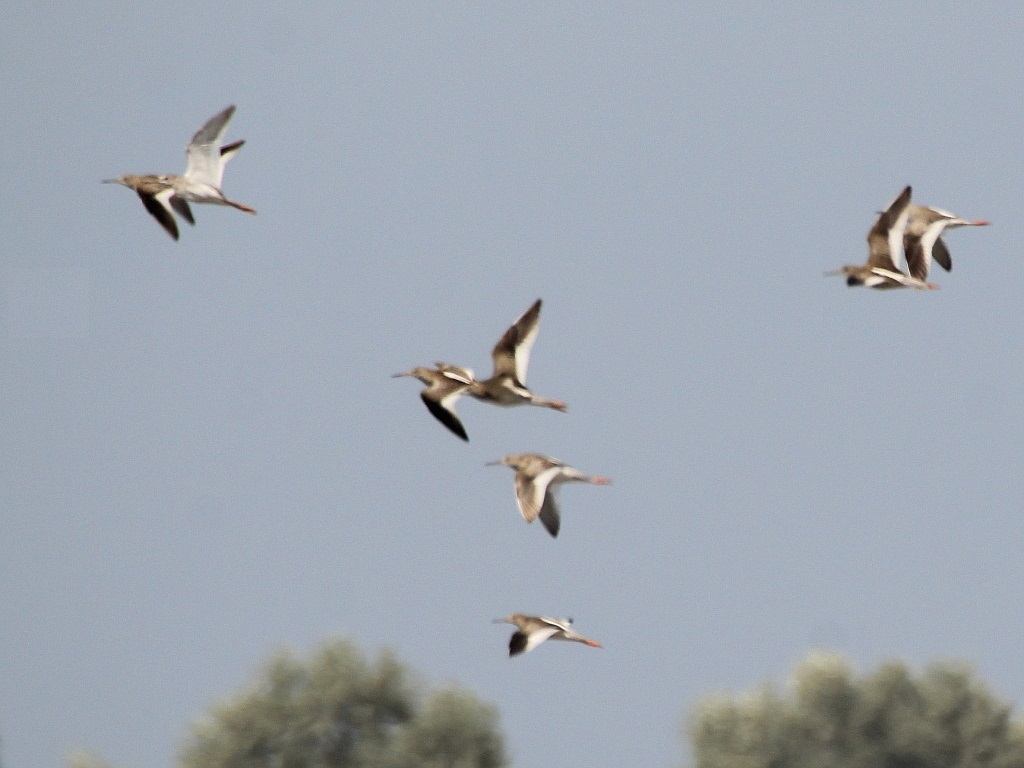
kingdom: Animalia
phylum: Chordata
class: Aves
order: Charadriiformes
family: Scolopacidae
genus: Tringa
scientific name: Tringa totanus
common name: Common redshank
